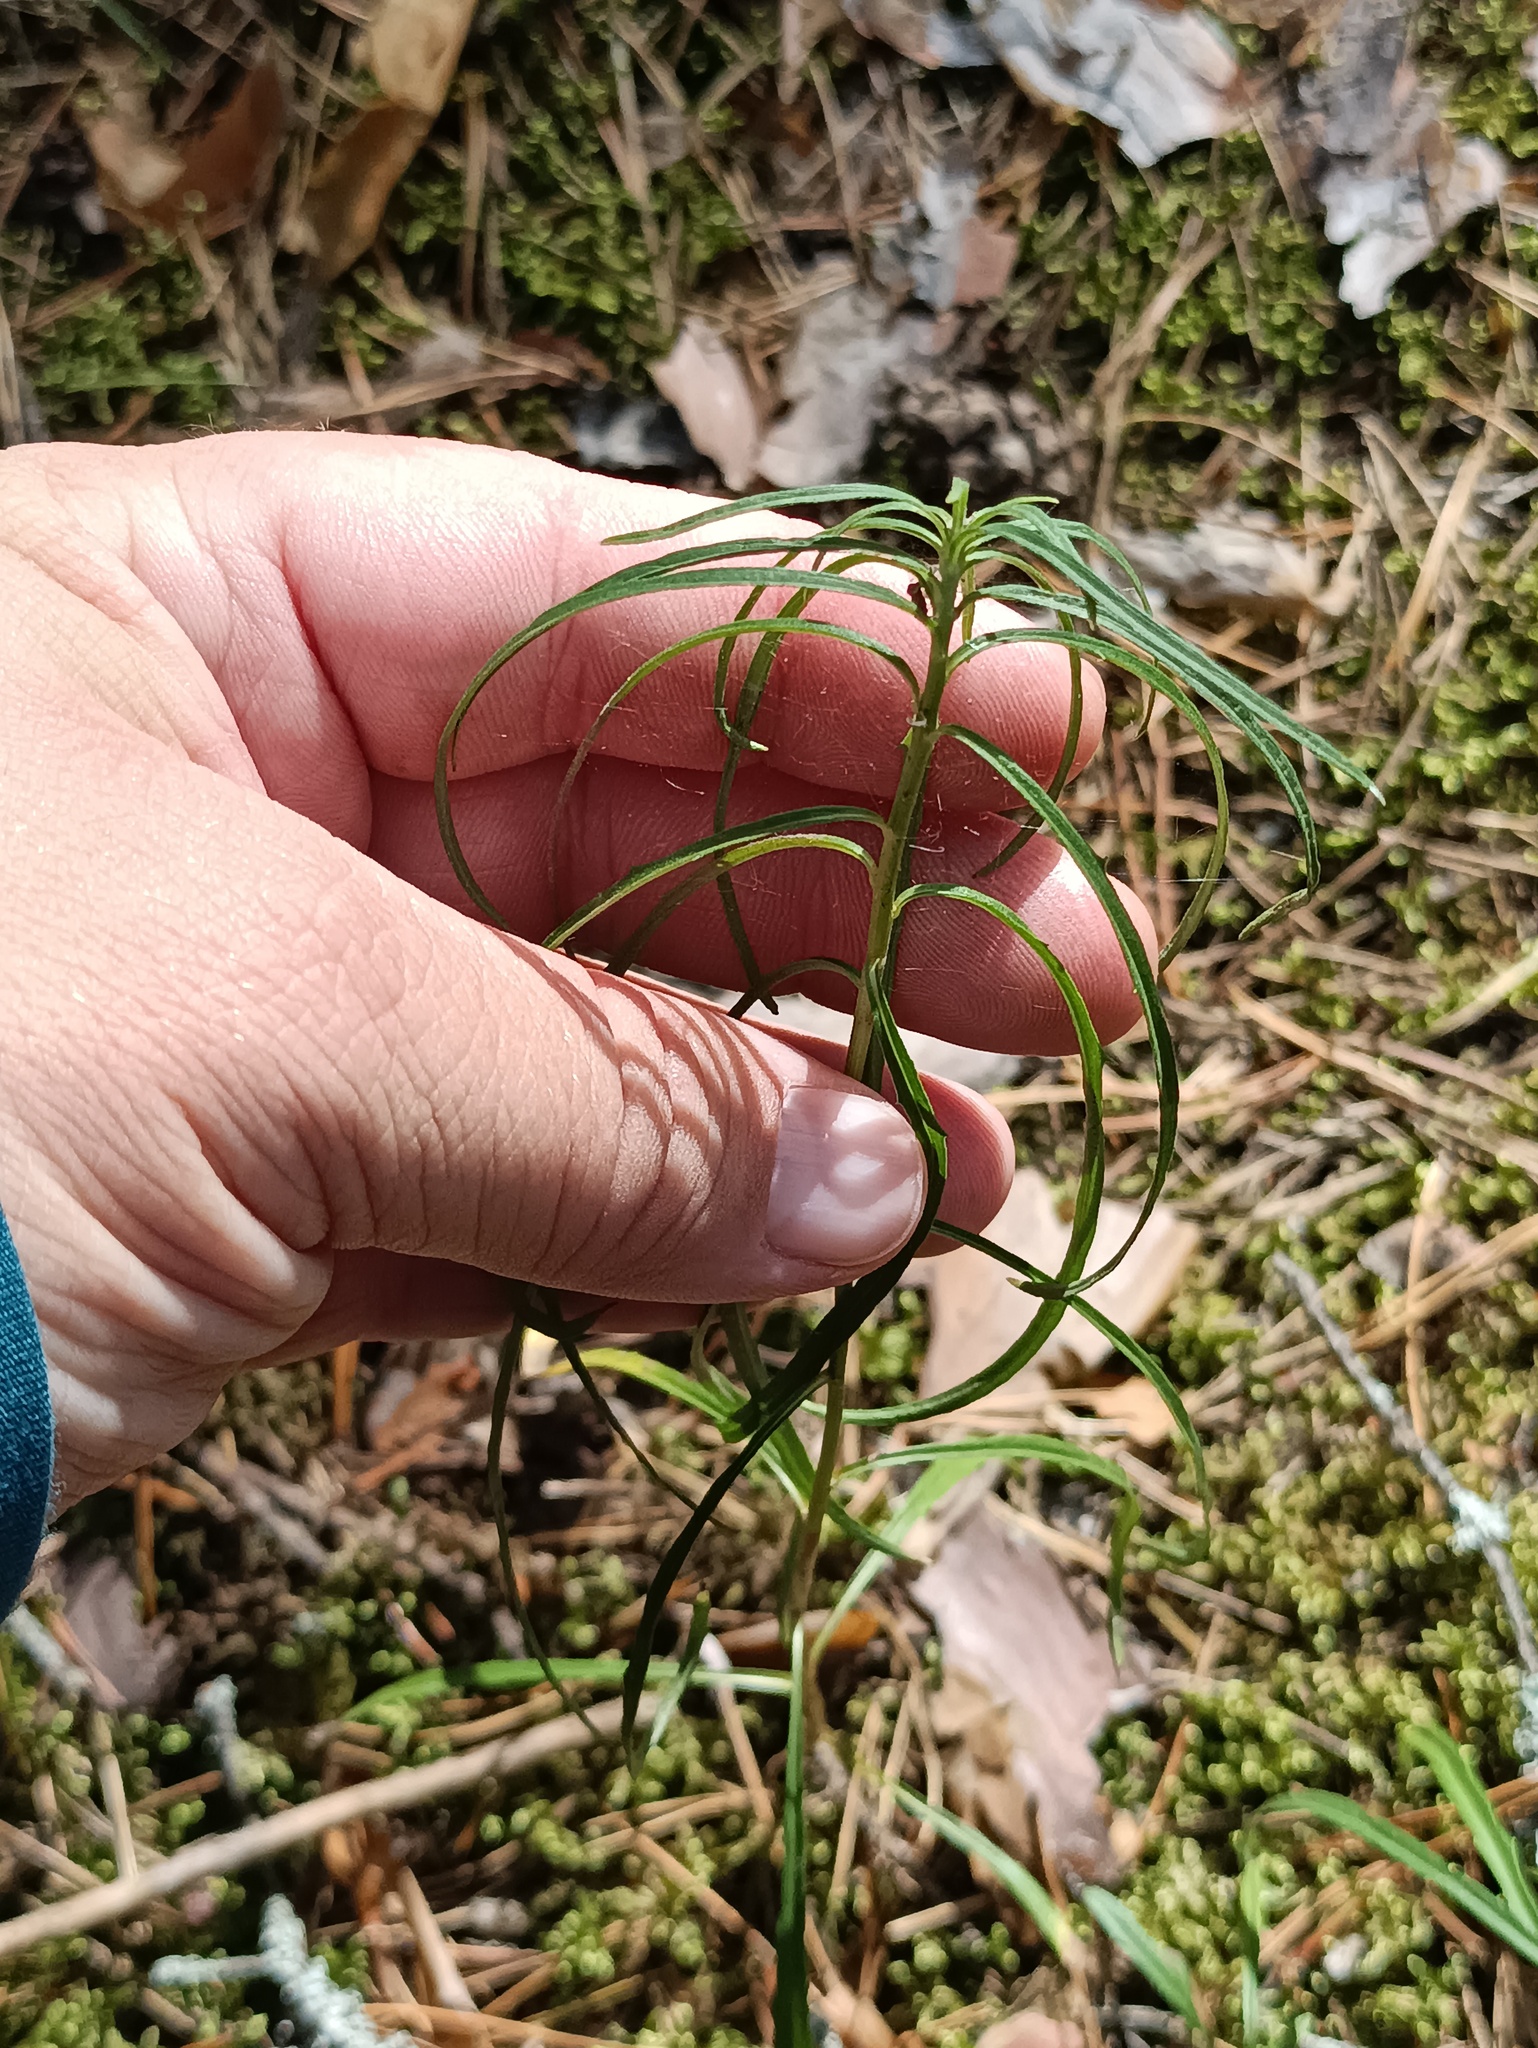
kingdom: Plantae
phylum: Tracheophyta
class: Magnoliopsida
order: Asterales
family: Asteraceae
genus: Hieracium
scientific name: Hieracium umbellatum
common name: Northern hawkweed
